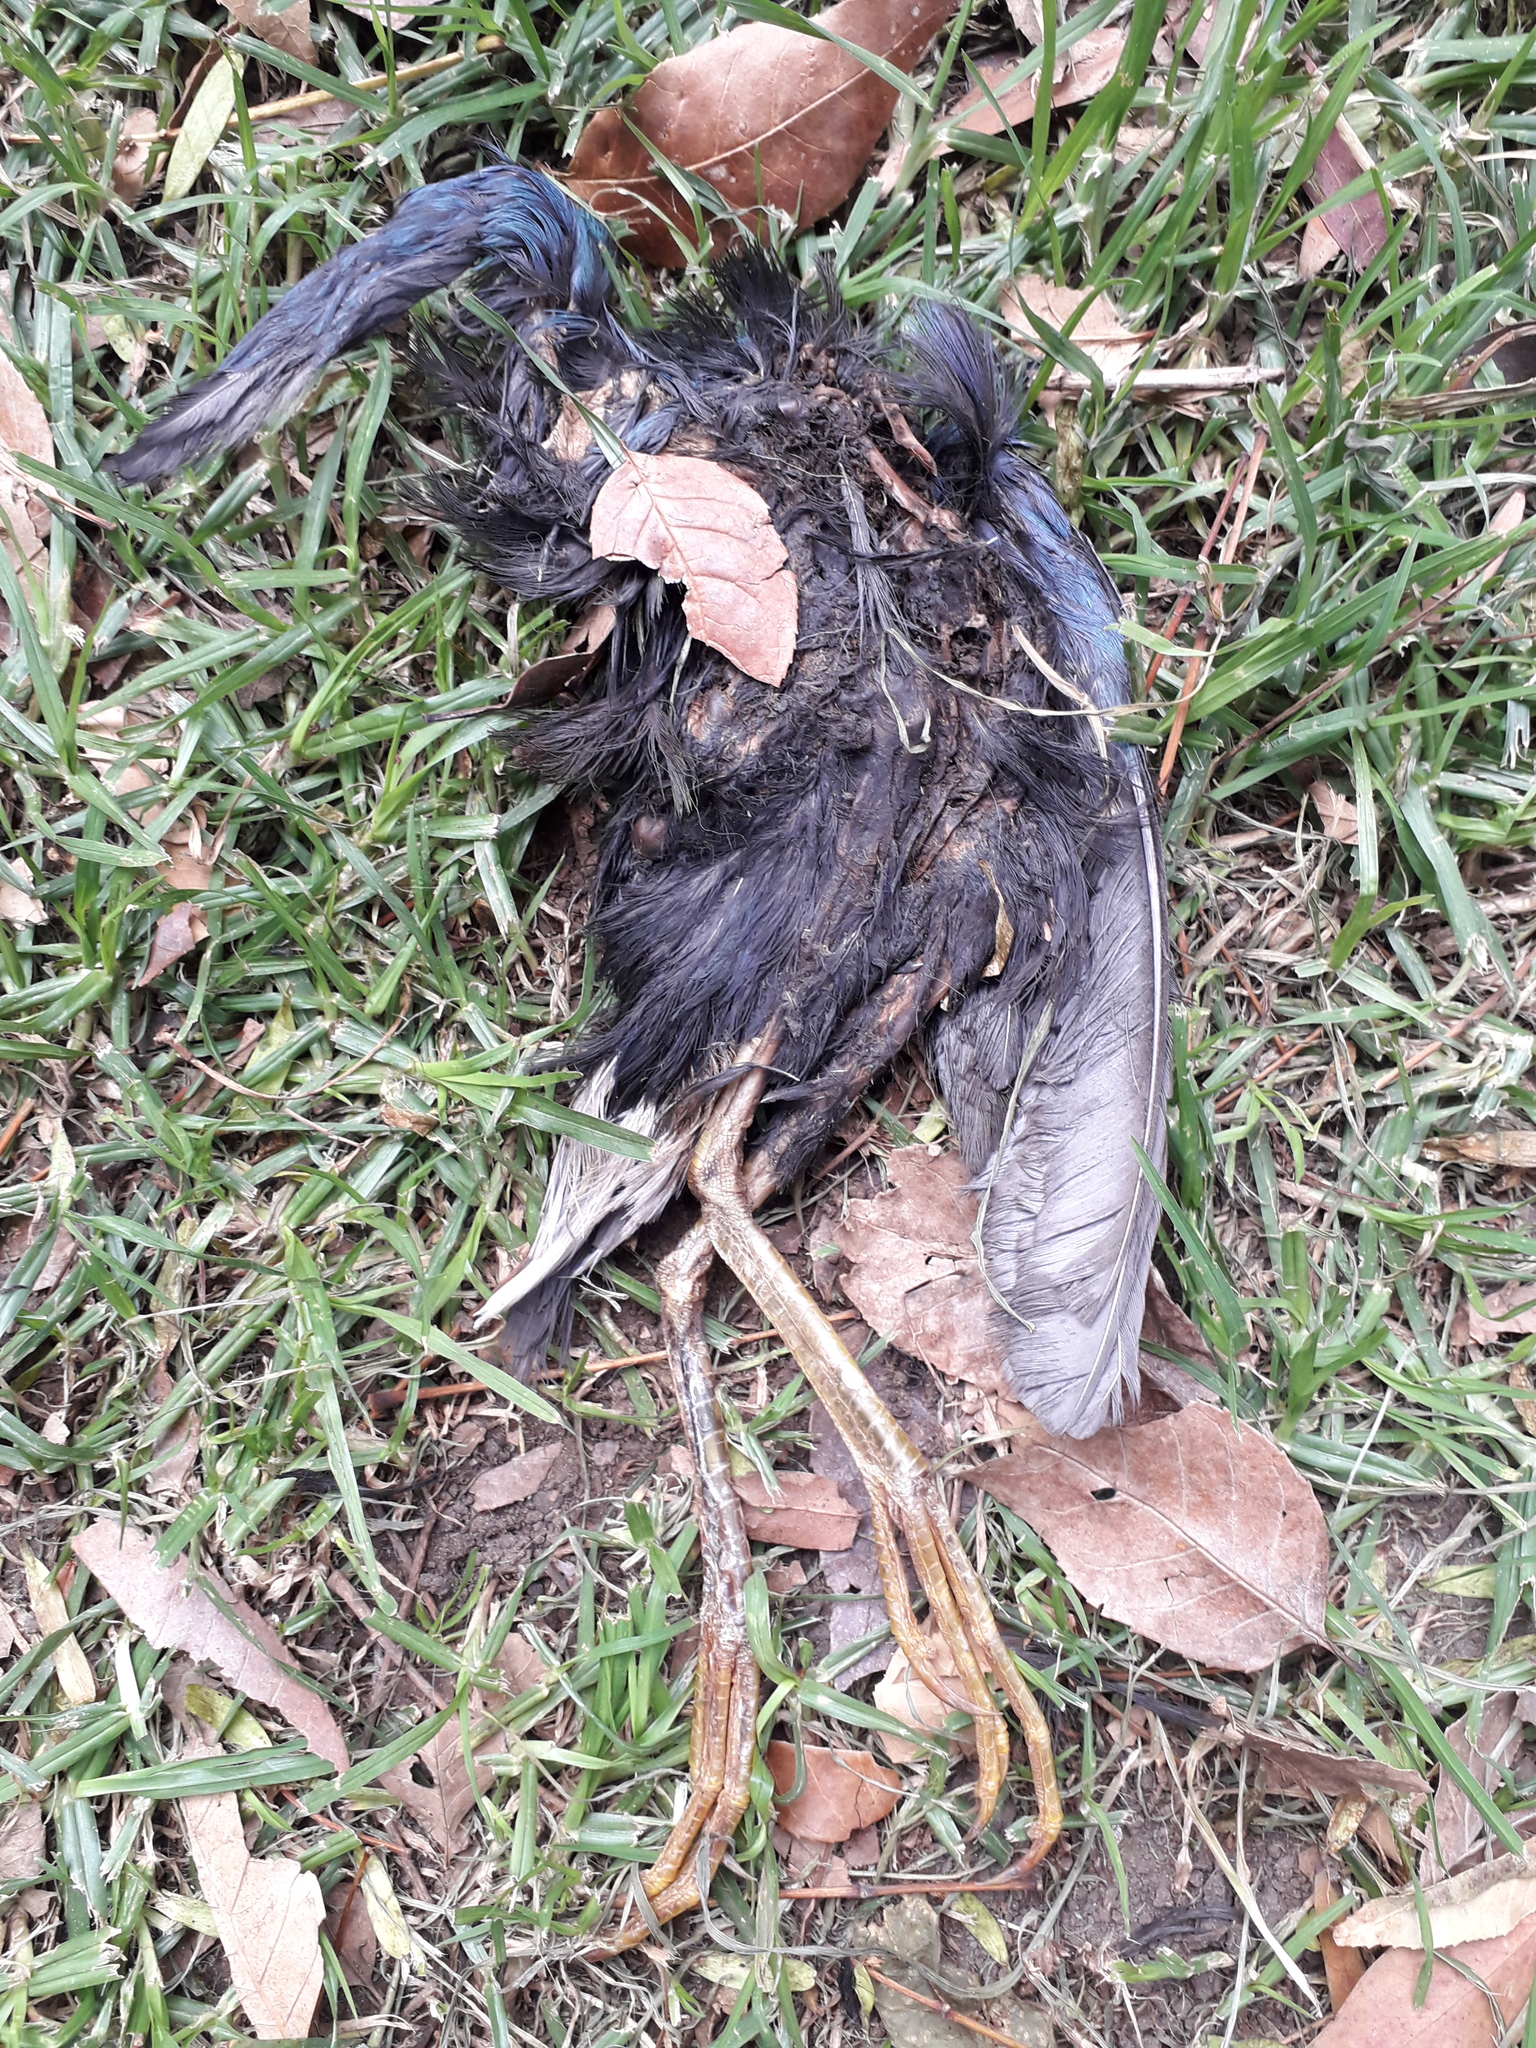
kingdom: Animalia
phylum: Chordata
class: Aves
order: Gruiformes
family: Rallidae
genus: Porphyrio
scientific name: Porphyrio martinica
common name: Purple gallinule
